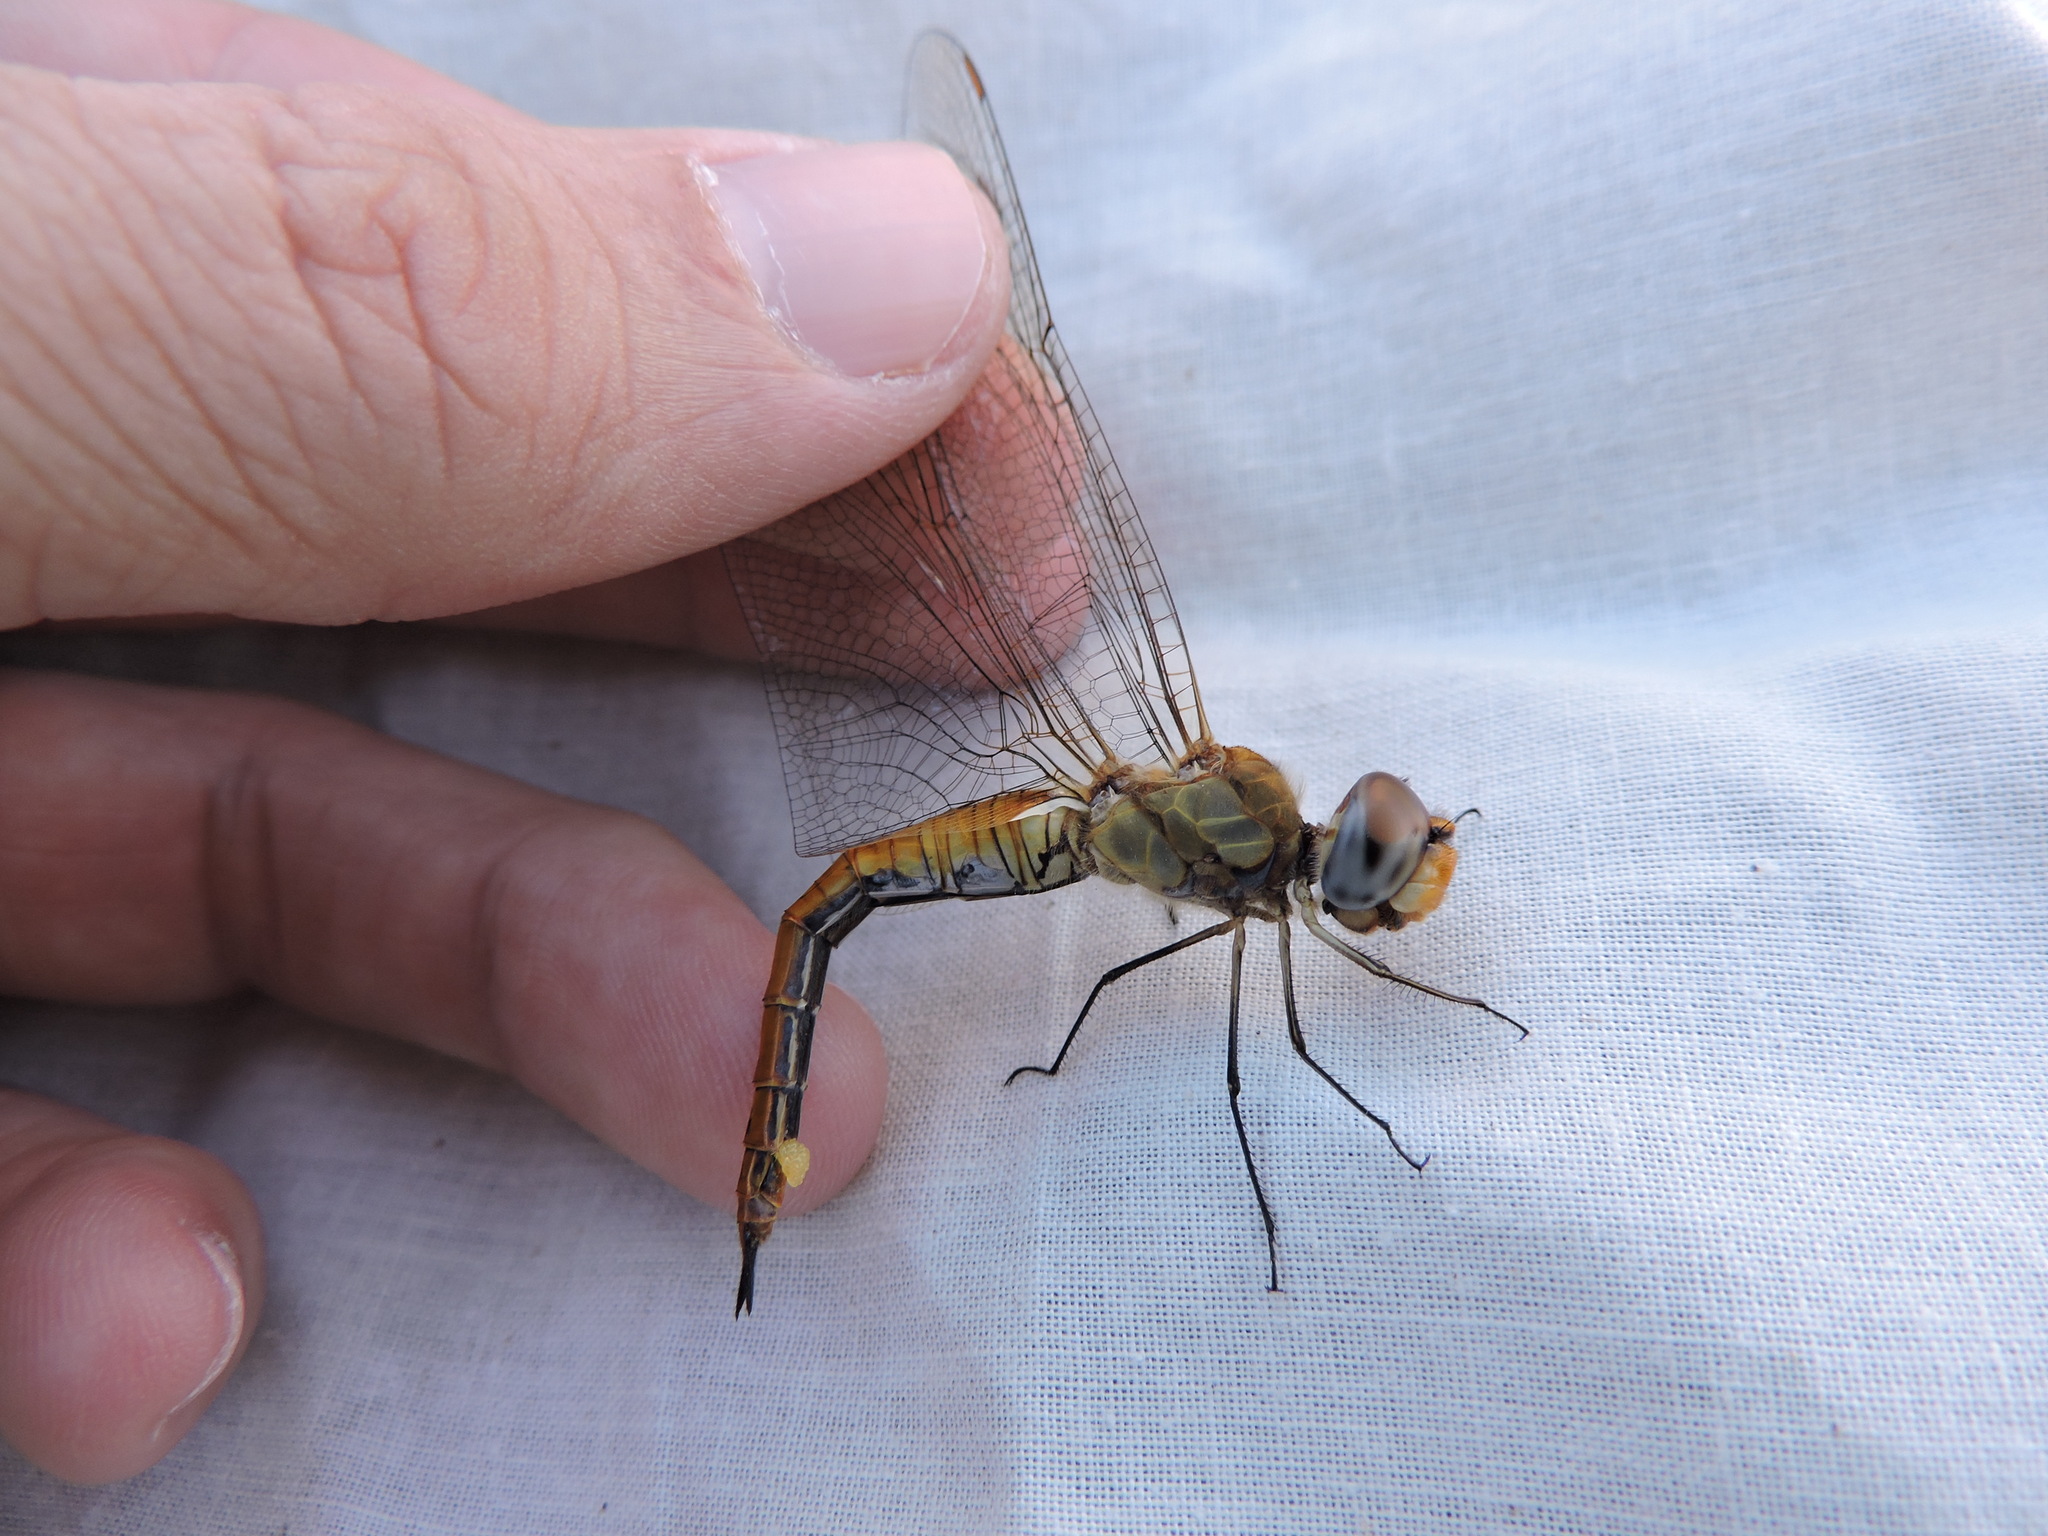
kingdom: Animalia
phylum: Arthropoda
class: Insecta
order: Odonata
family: Libellulidae
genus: Pantala
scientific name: Pantala flavescens
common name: Wandering glider
